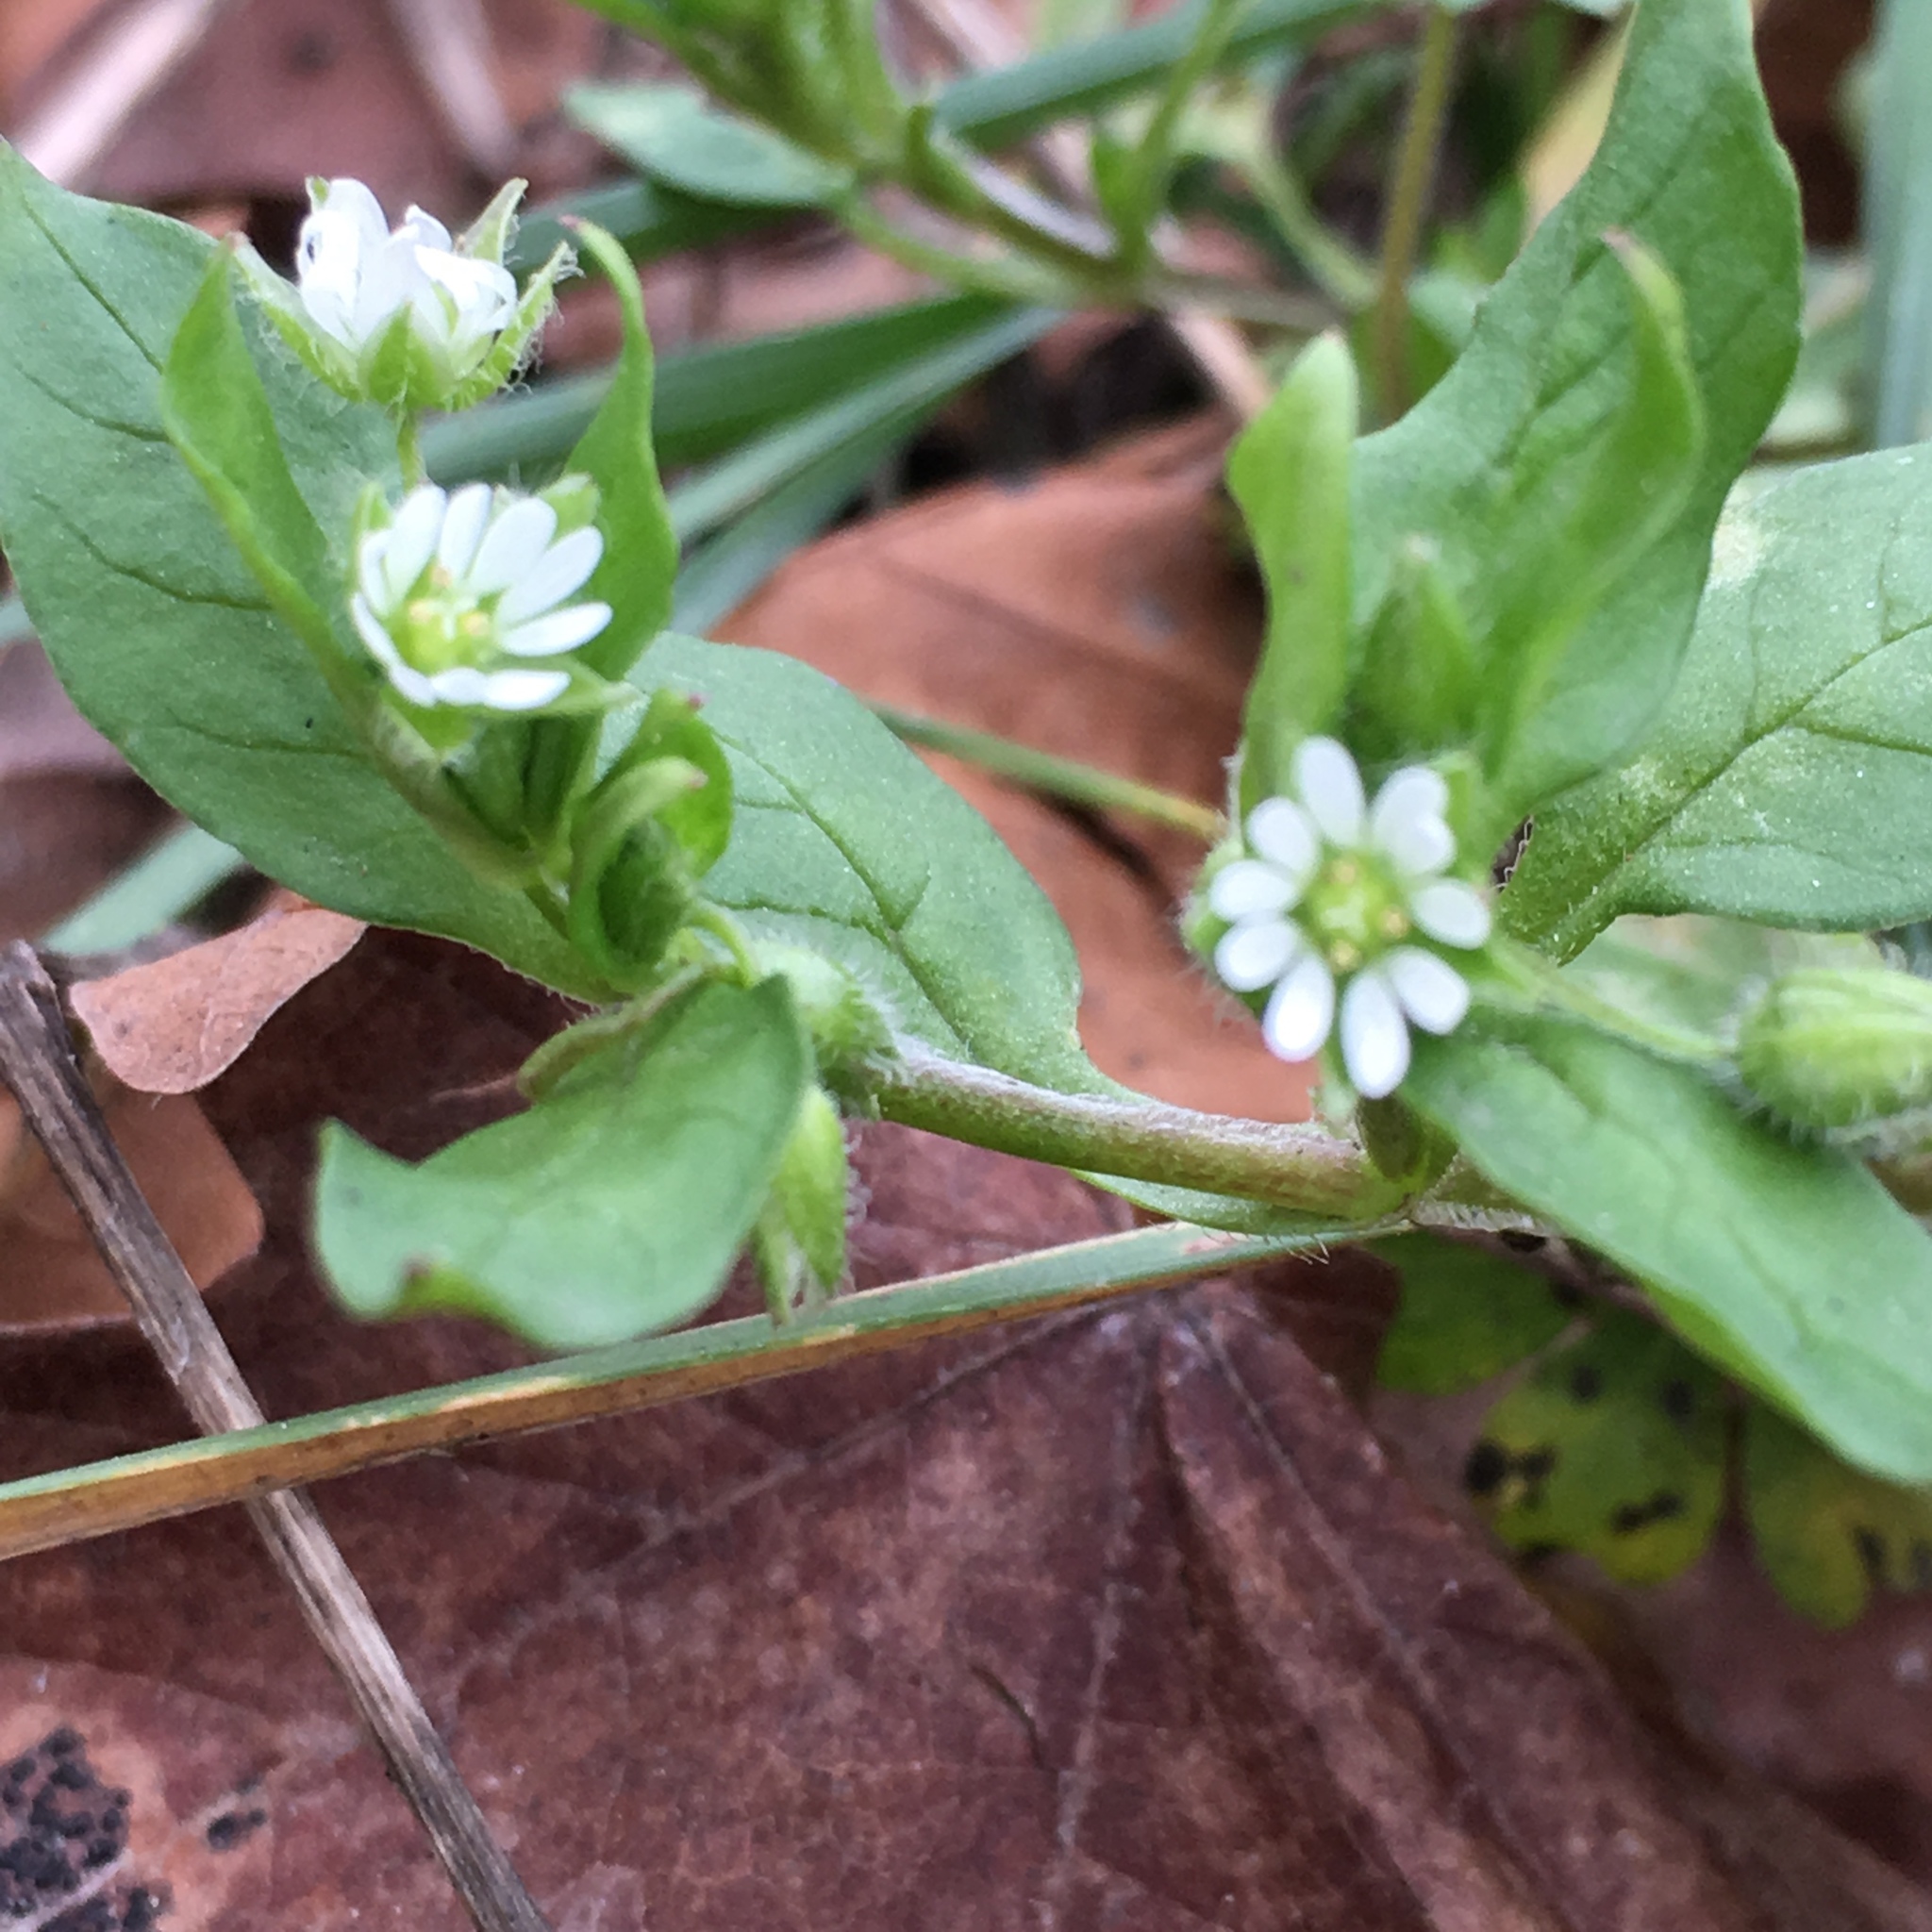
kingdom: Plantae
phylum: Tracheophyta
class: Magnoliopsida
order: Caryophyllales
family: Caryophyllaceae
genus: Stellaria
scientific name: Stellaria media
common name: Common chickweed
